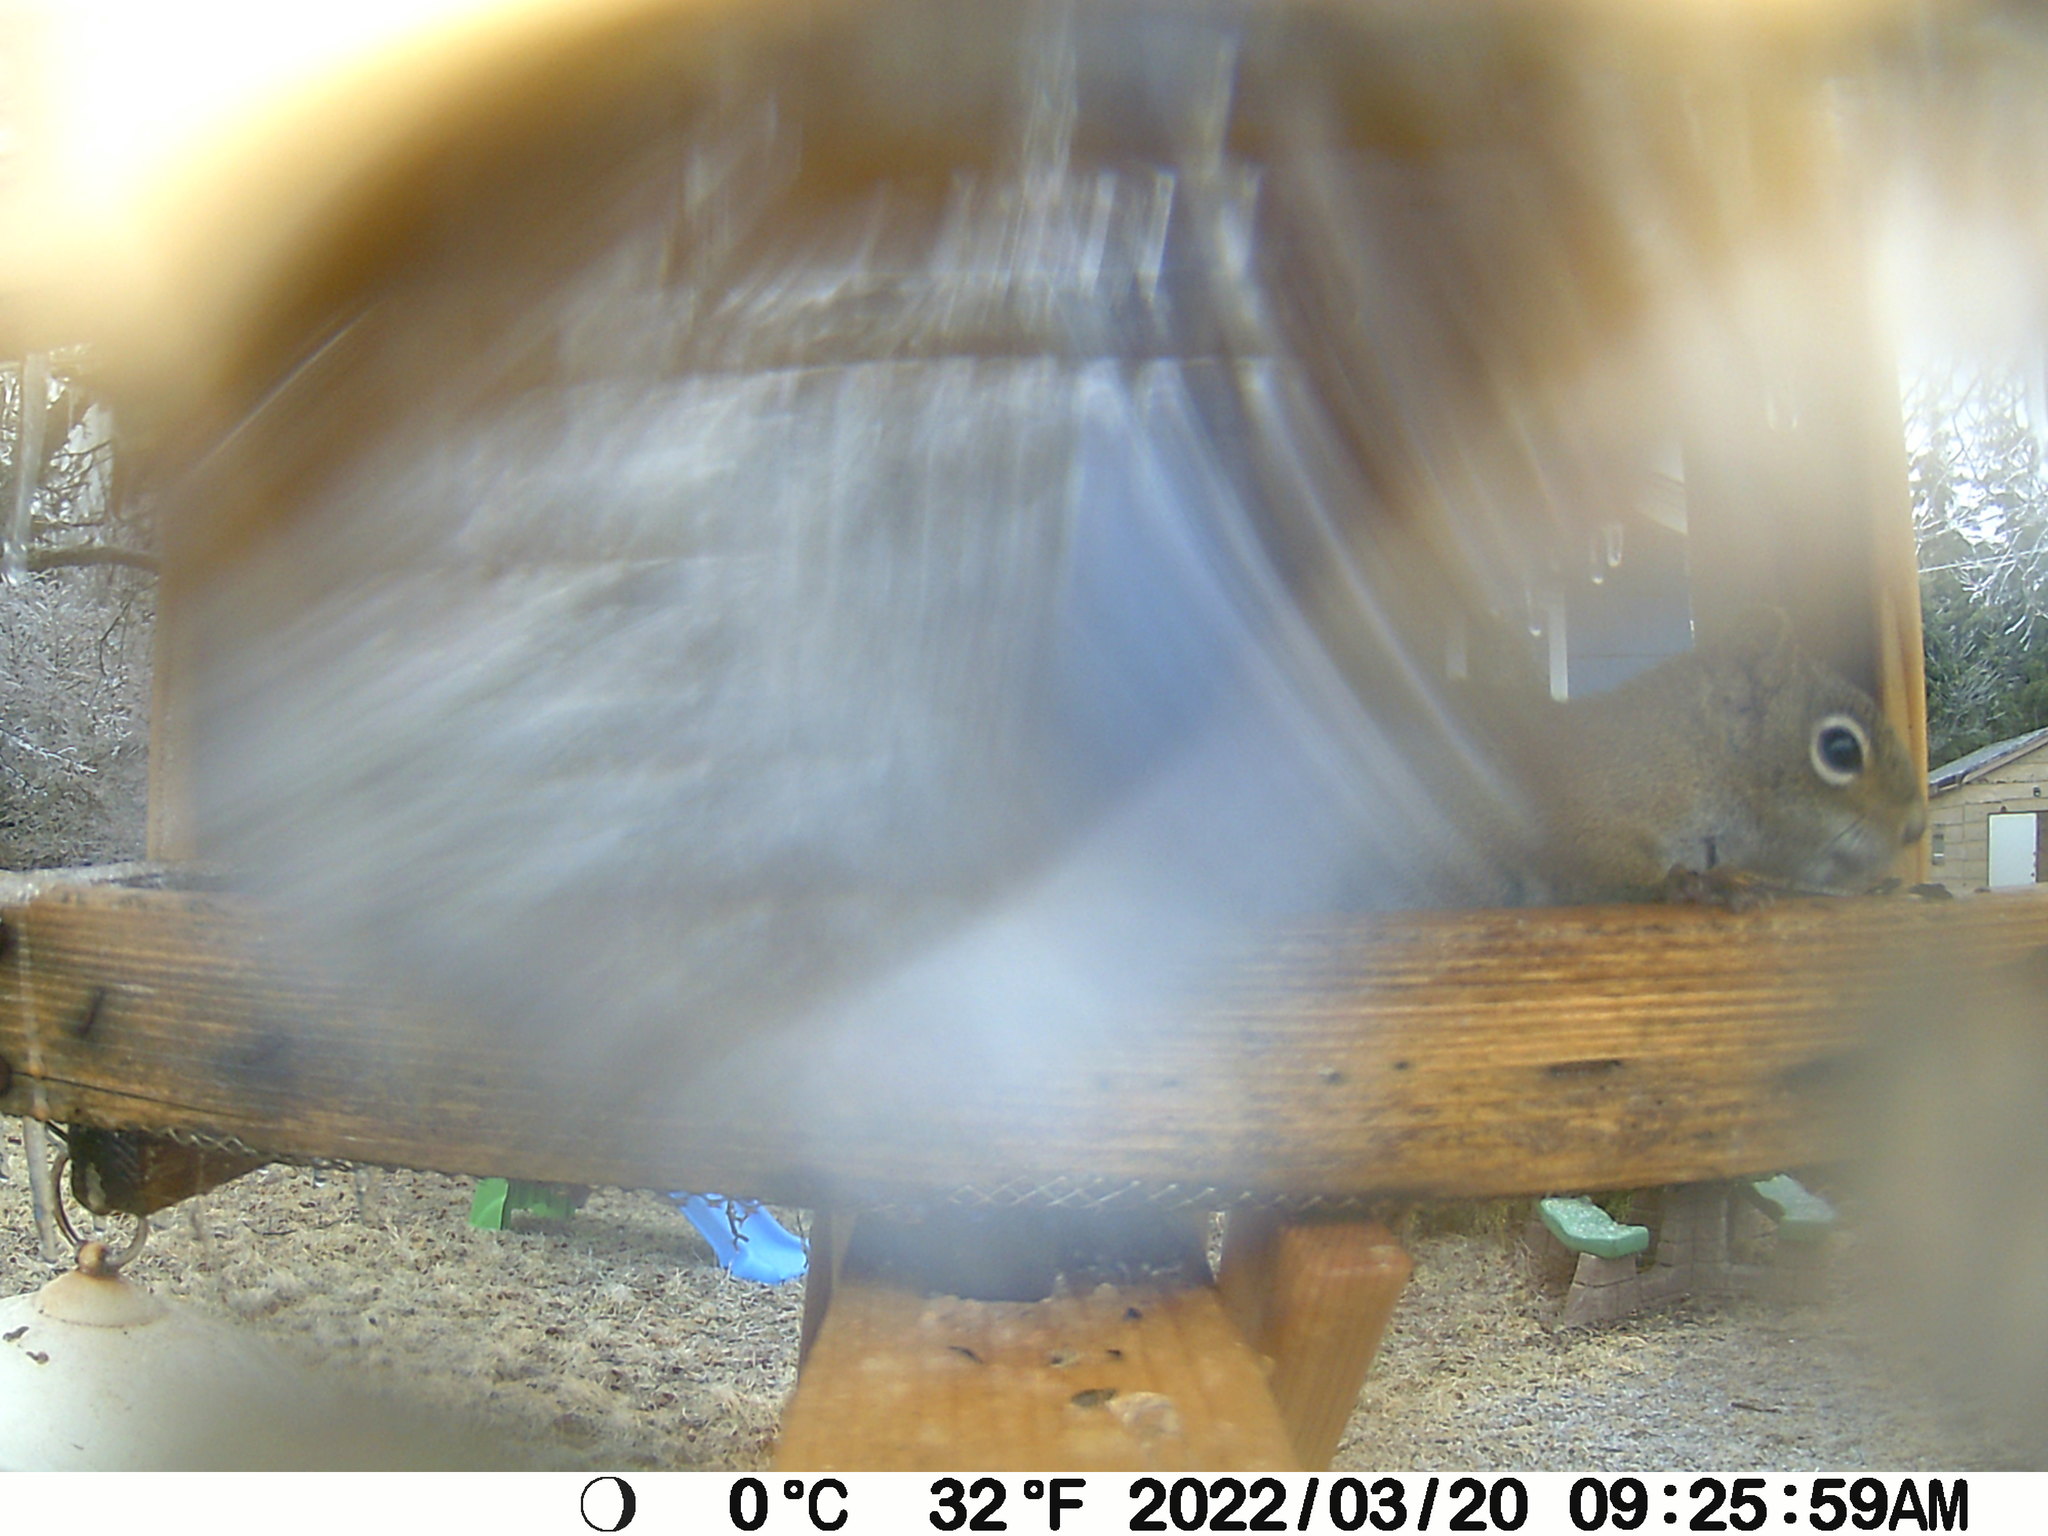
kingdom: Animalia
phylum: Chordata
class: Mammalia
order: Rodentia
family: Sciuridae
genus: Tamiasciurus
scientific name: Tamiasciurus hudsonicus
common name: Red squirrel
